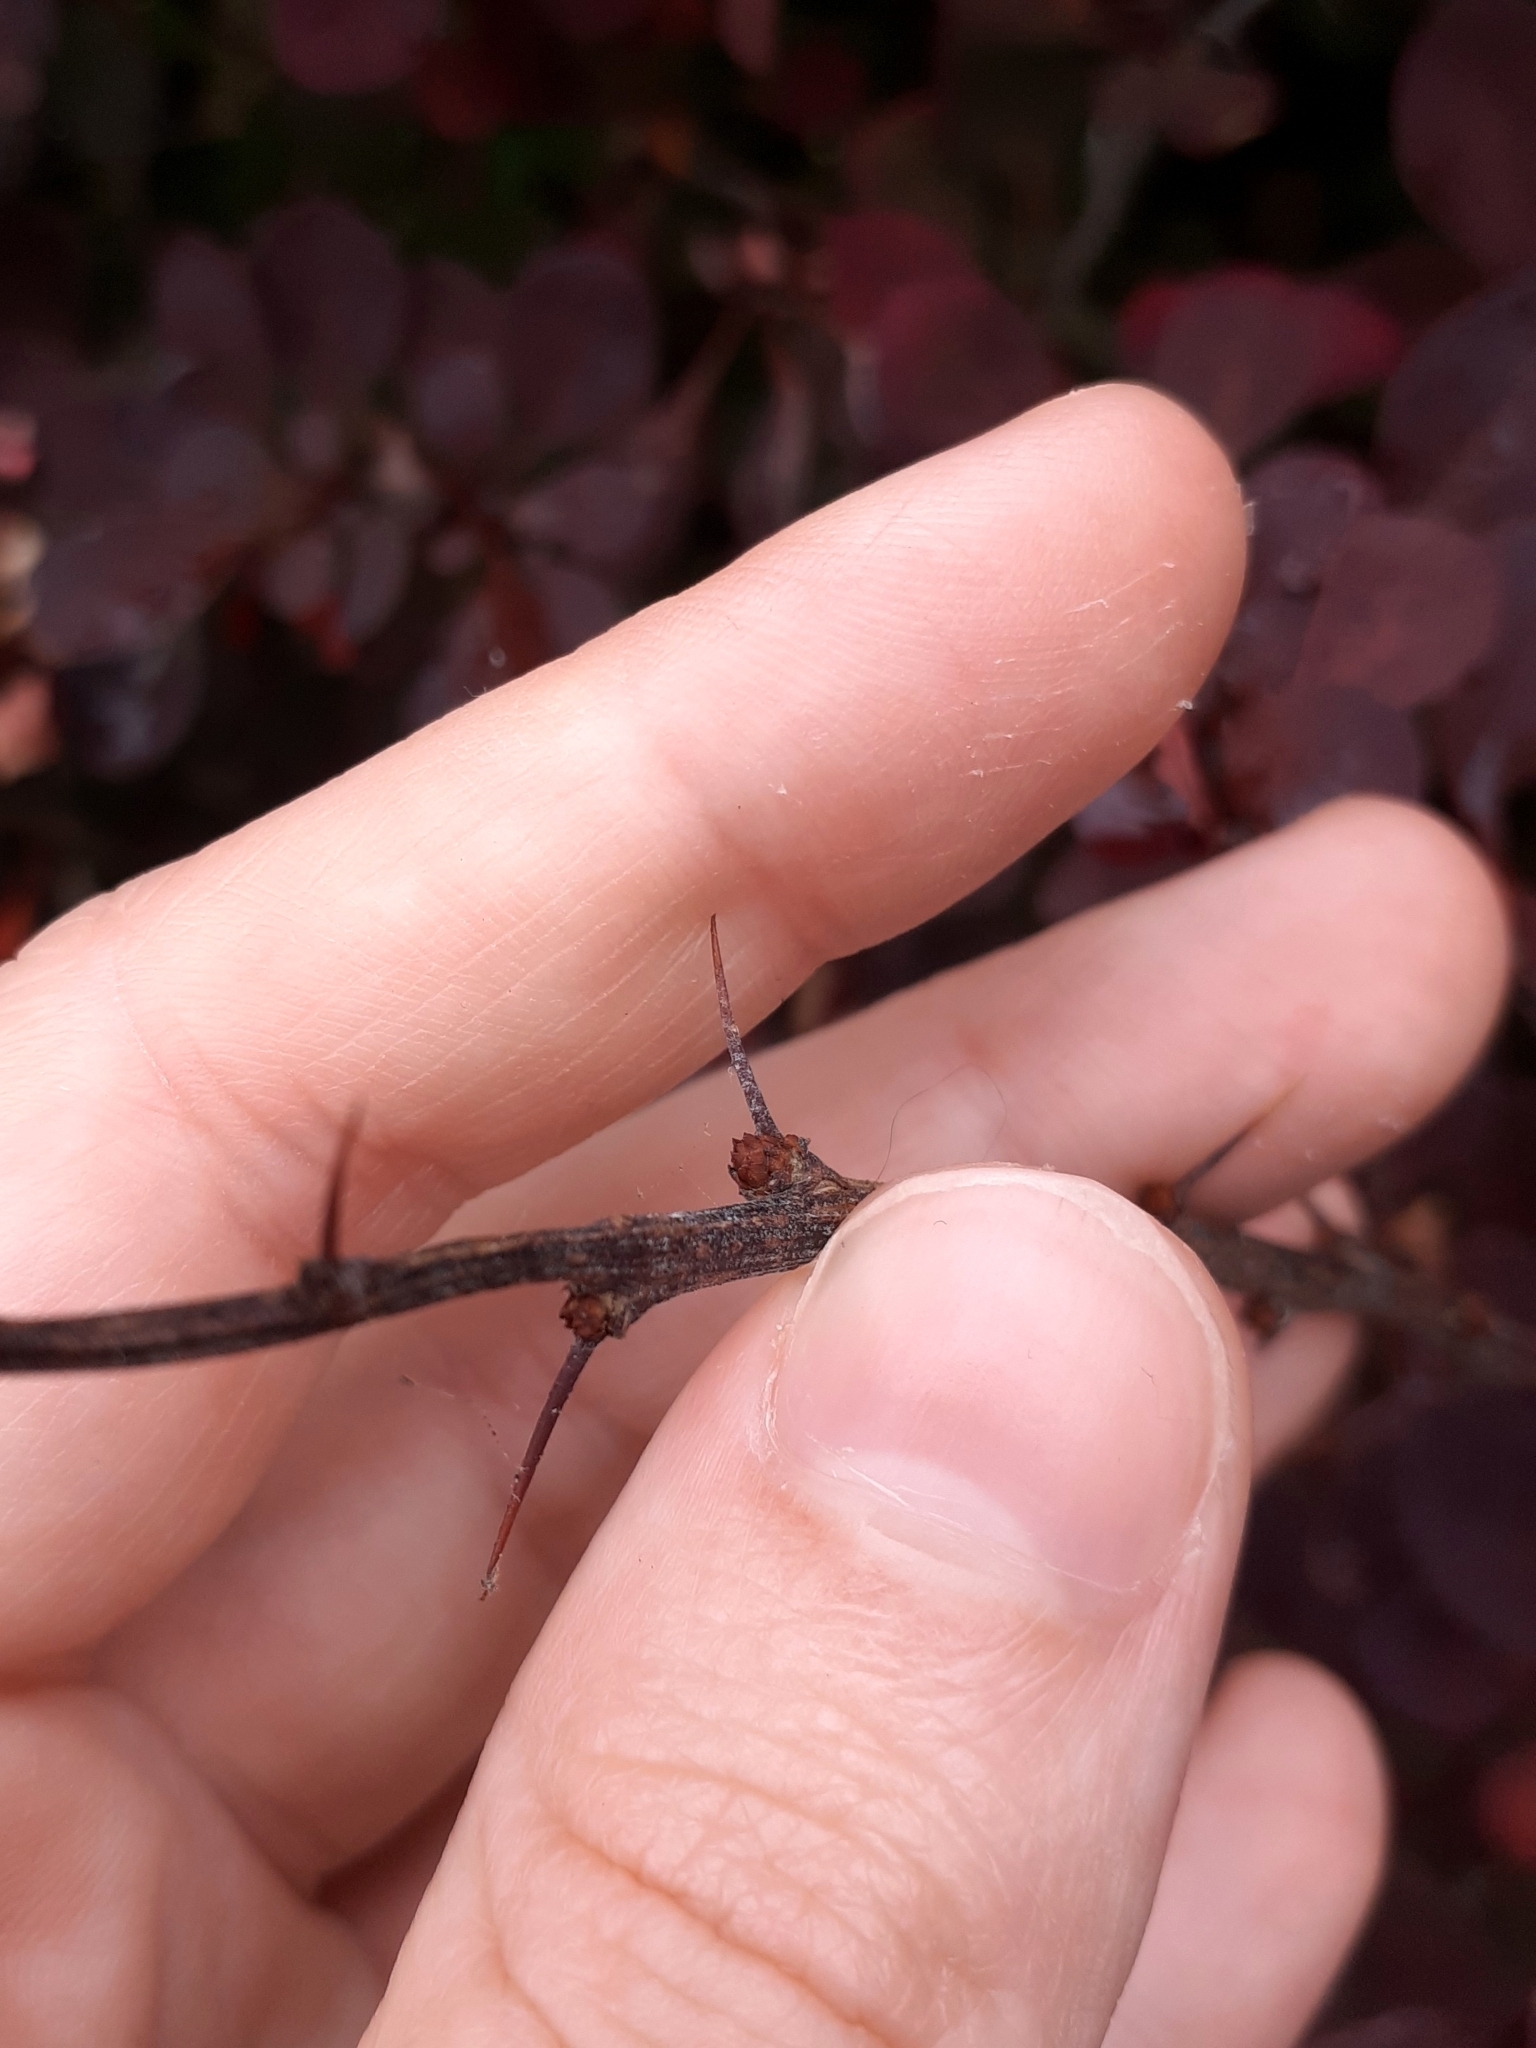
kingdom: Plantae
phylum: Tracheophyta
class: Magnoliopsida
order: Ranunculales
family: Berberidaceae
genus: Berberis
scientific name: Berberis thunbergii
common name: Japanese barberry
